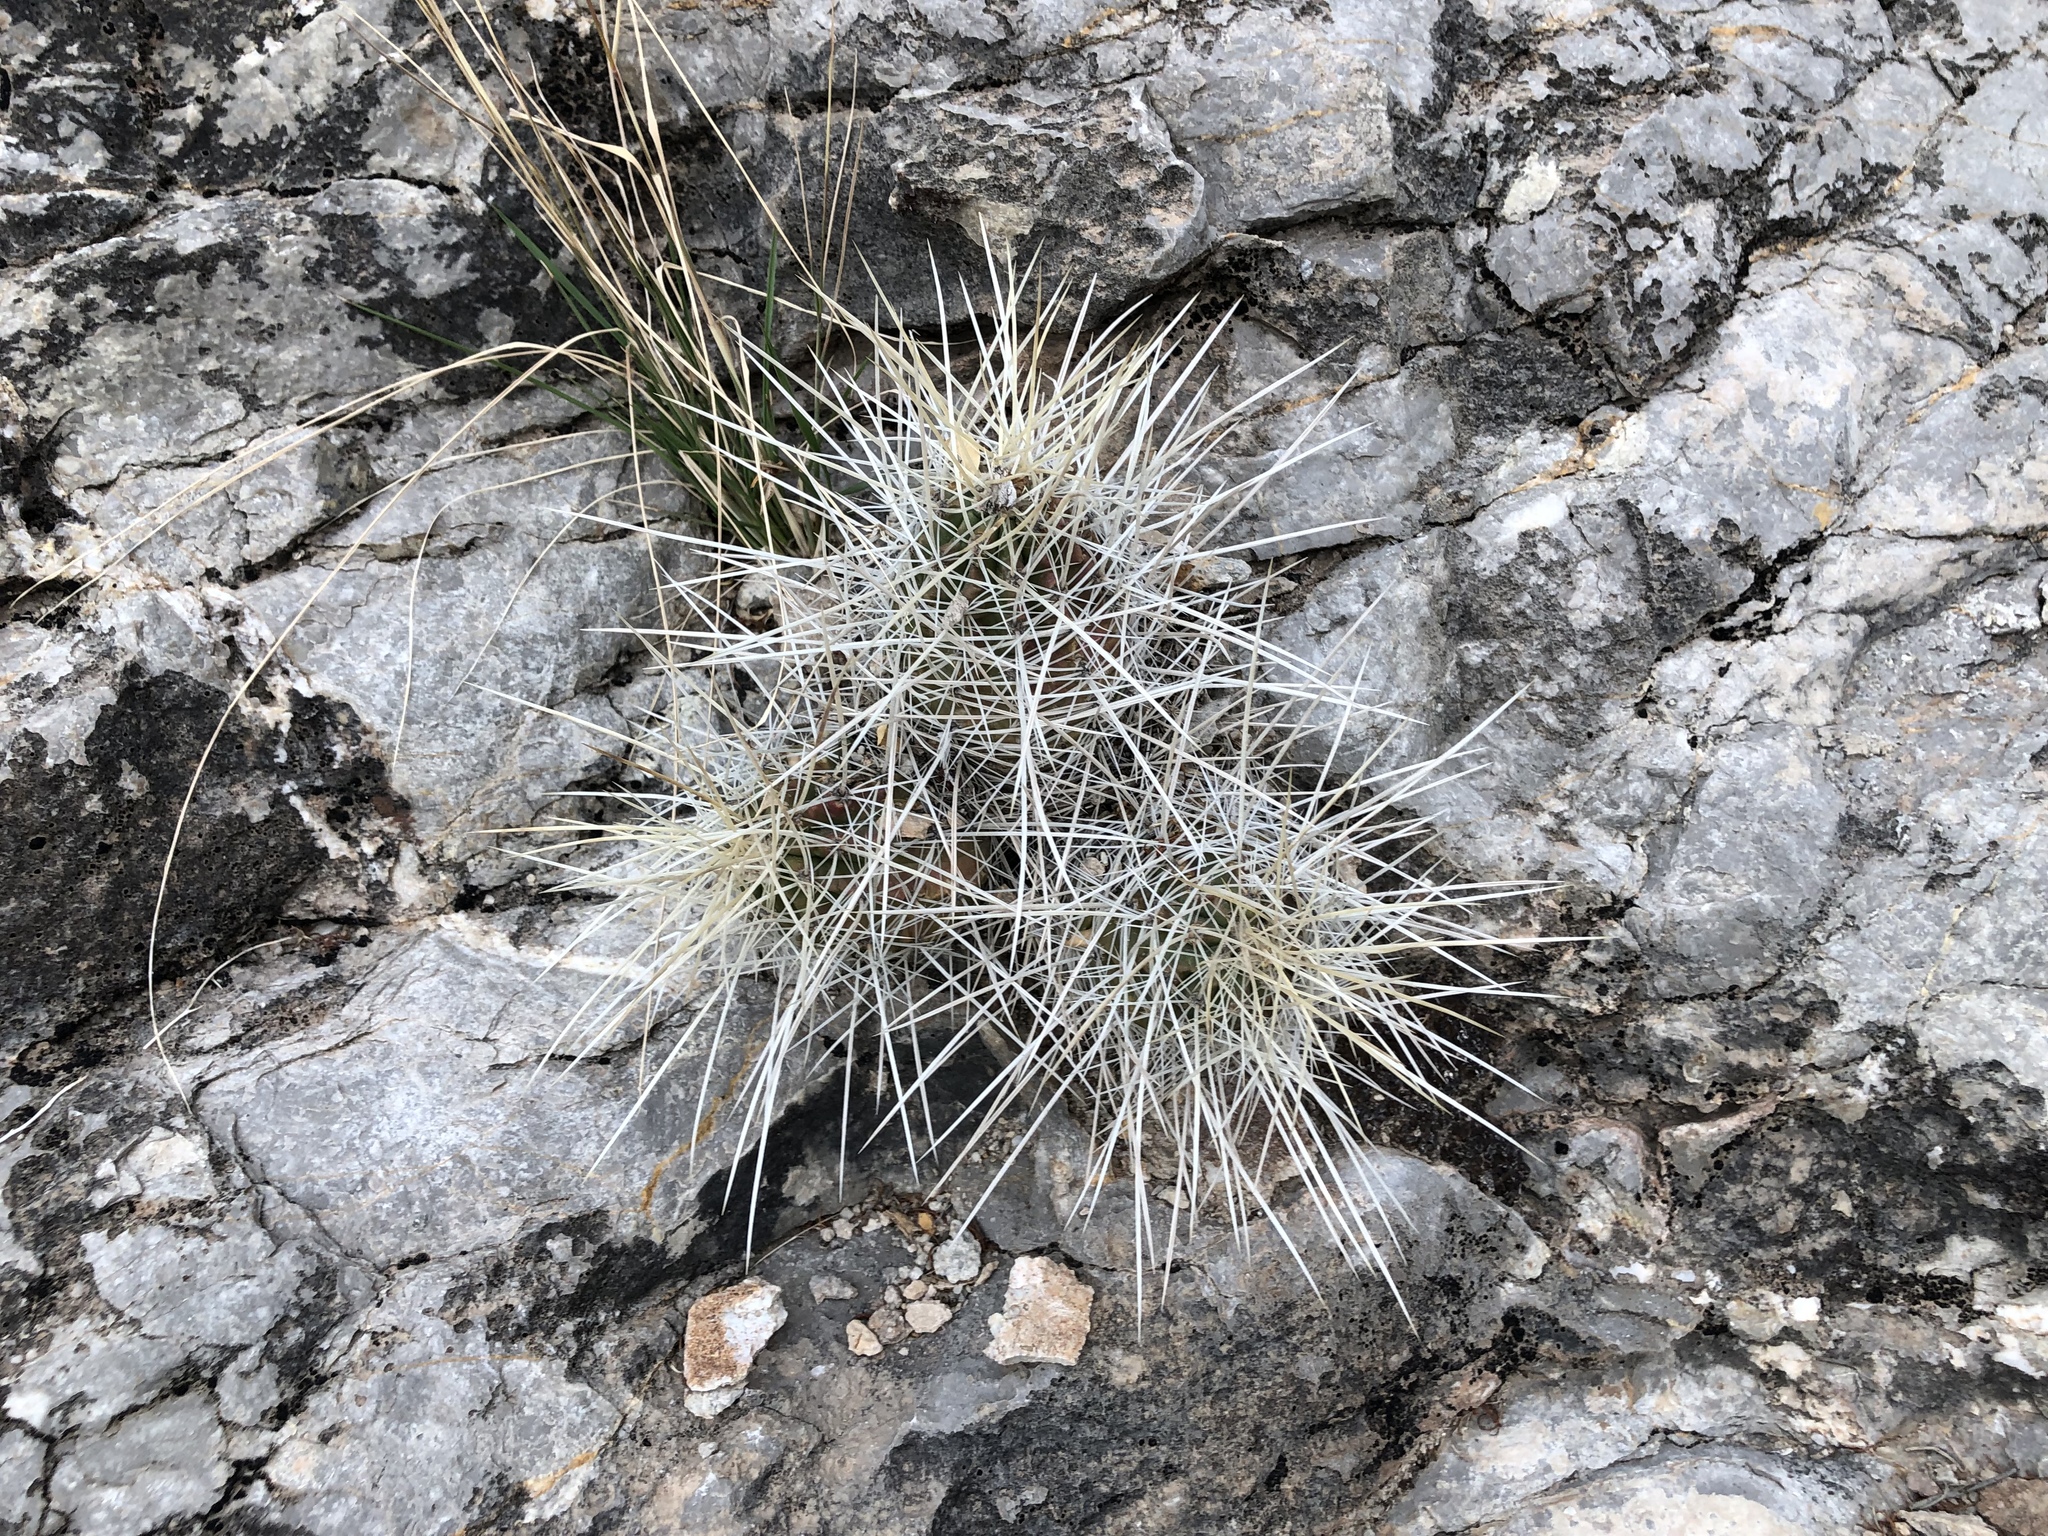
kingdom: Plantae
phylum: Tracheophyta
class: Magnoliopsida
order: Caryophyllales
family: Cactaceae
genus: Echinocereus
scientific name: Echinocereus stramineus
